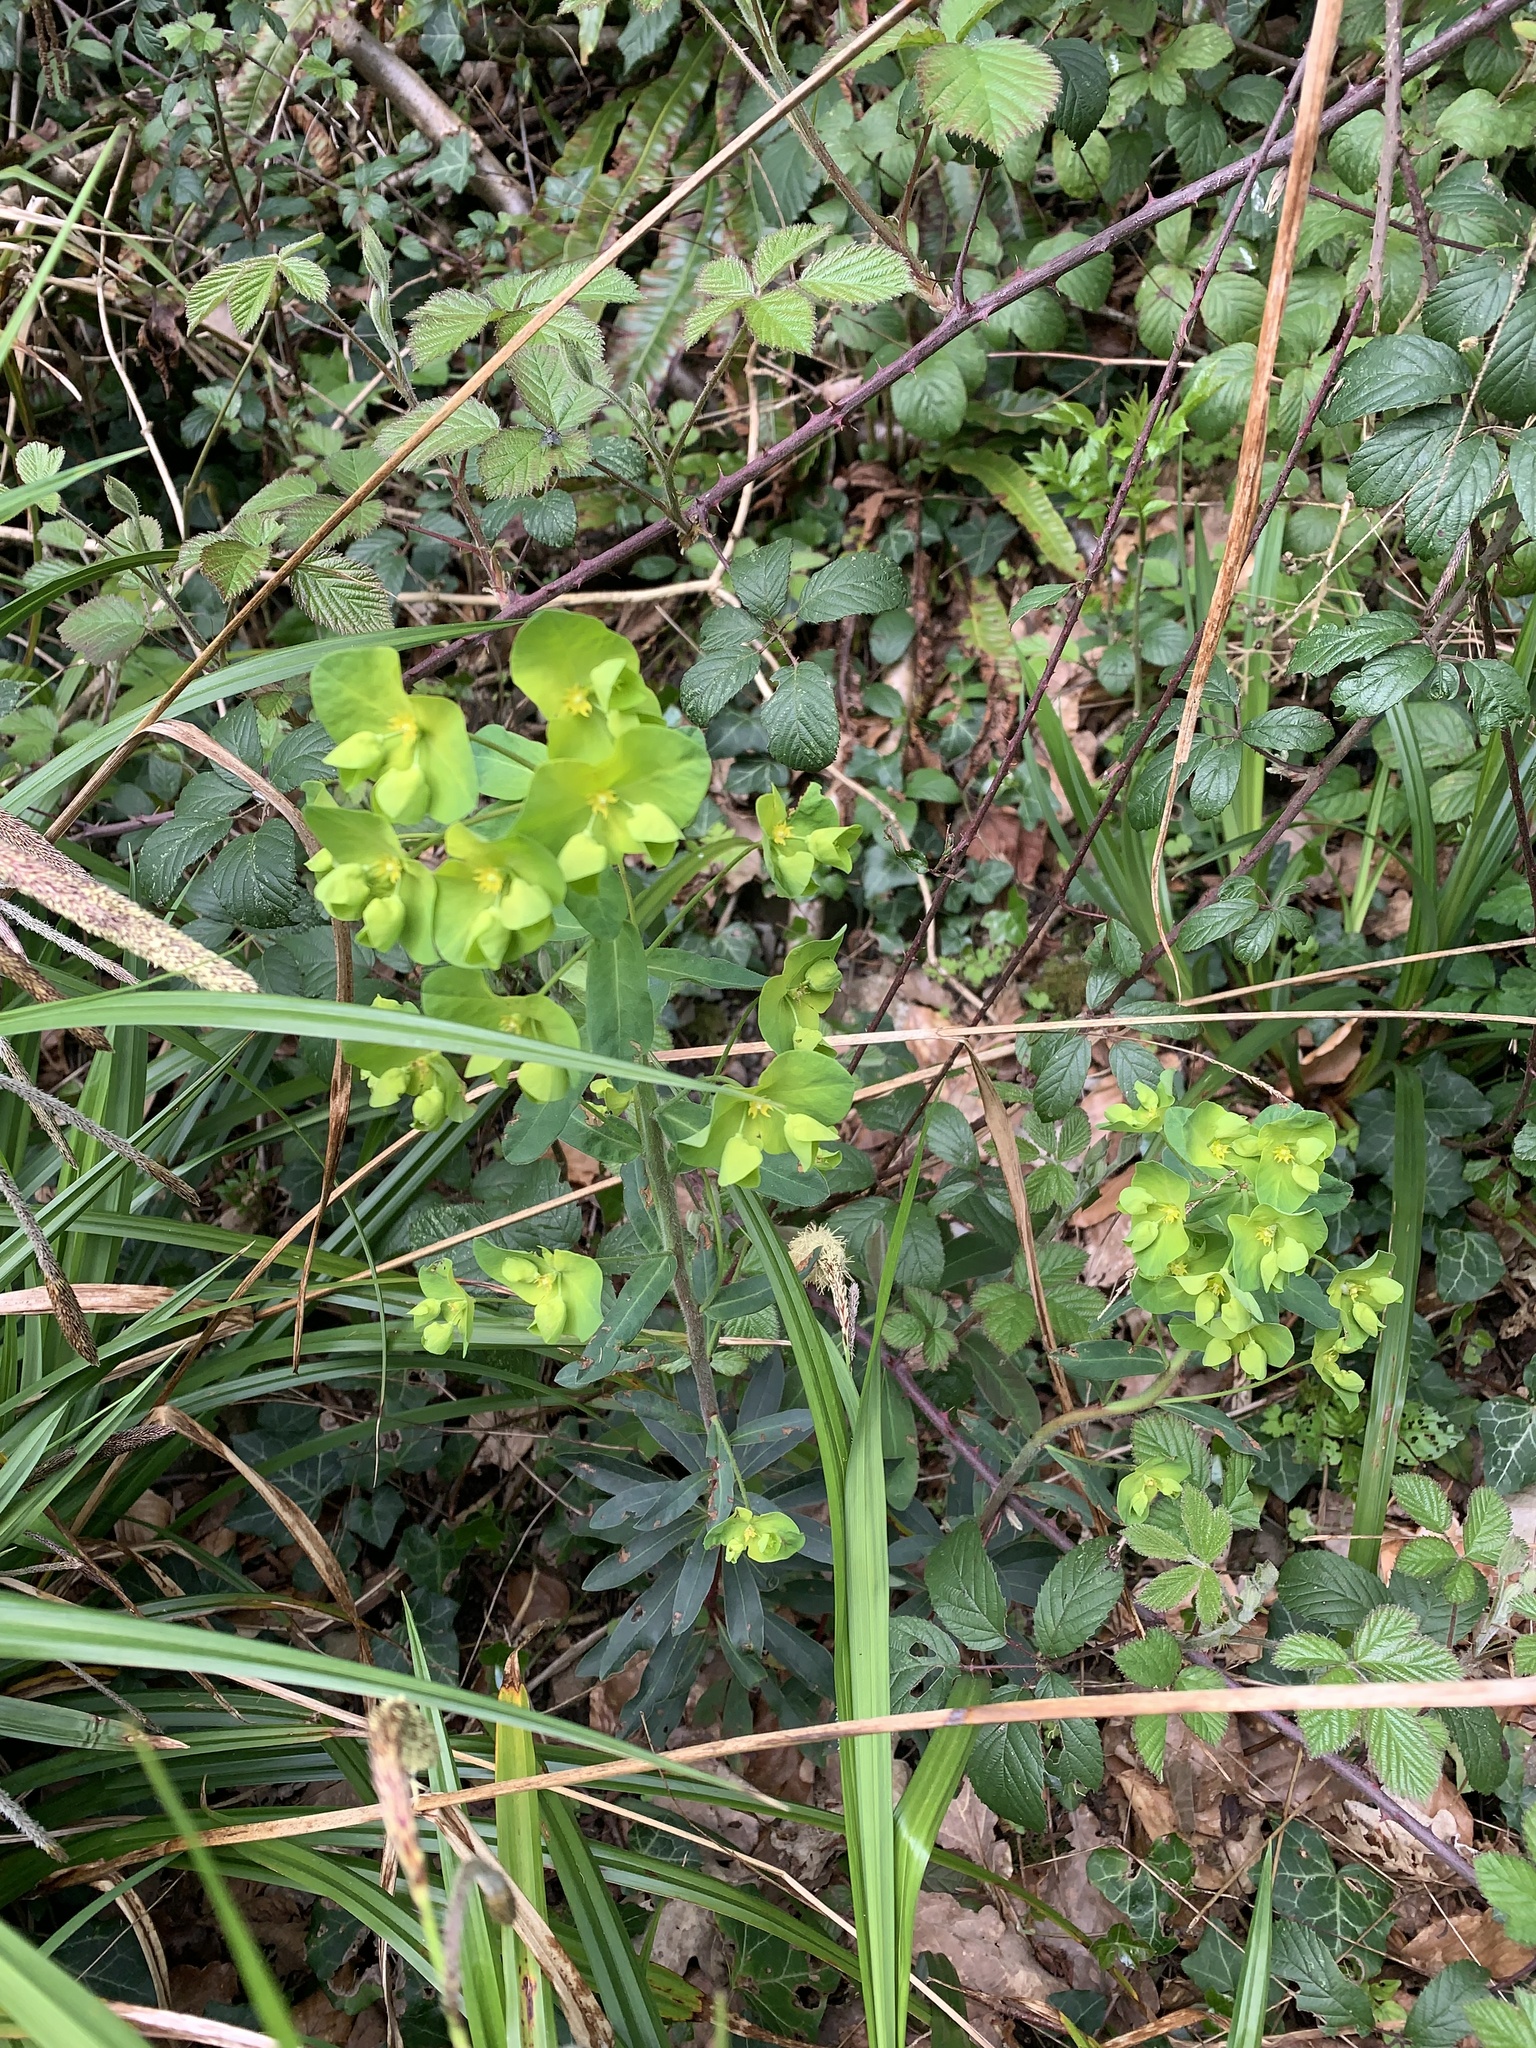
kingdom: Plantae
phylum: Tracheophyta
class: Magnoliopsida
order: Malpighiales
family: Euphorbiaceae
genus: Euphorbia
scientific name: Euphorbia amygdaloides
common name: Wood spurge
